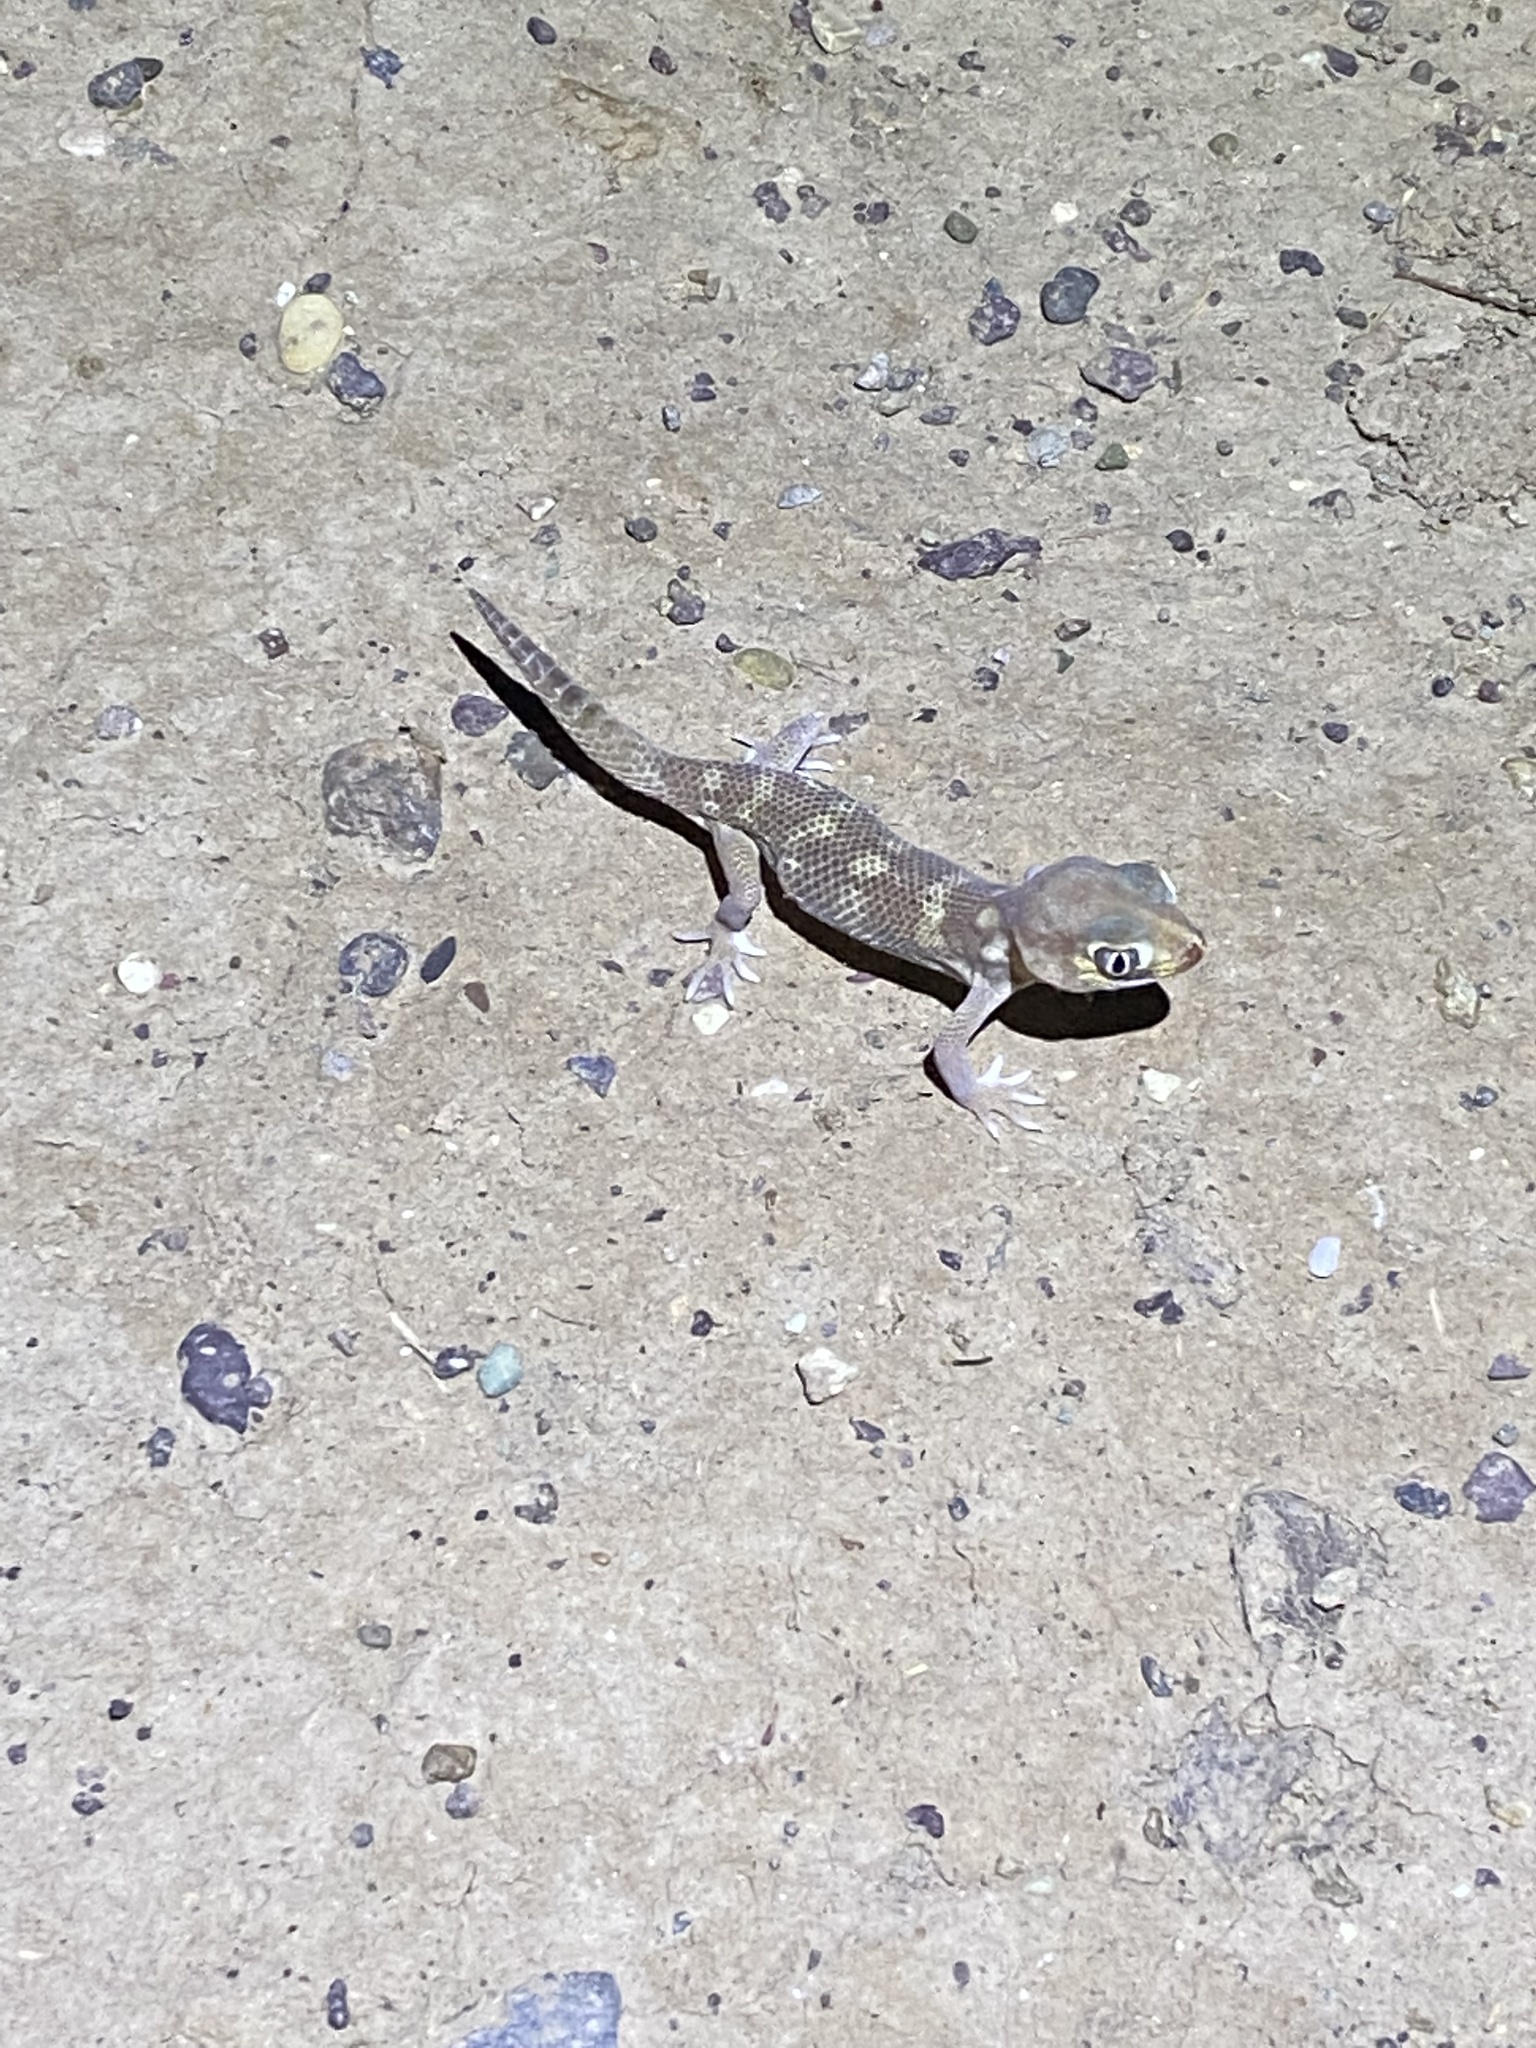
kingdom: Animalia
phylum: Chordata
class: Squamata
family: Sphaerodactylidae
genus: Teratoscincus
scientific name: Teratoscincus bedriagai
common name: Bedriaga's plate-tailed gecko
